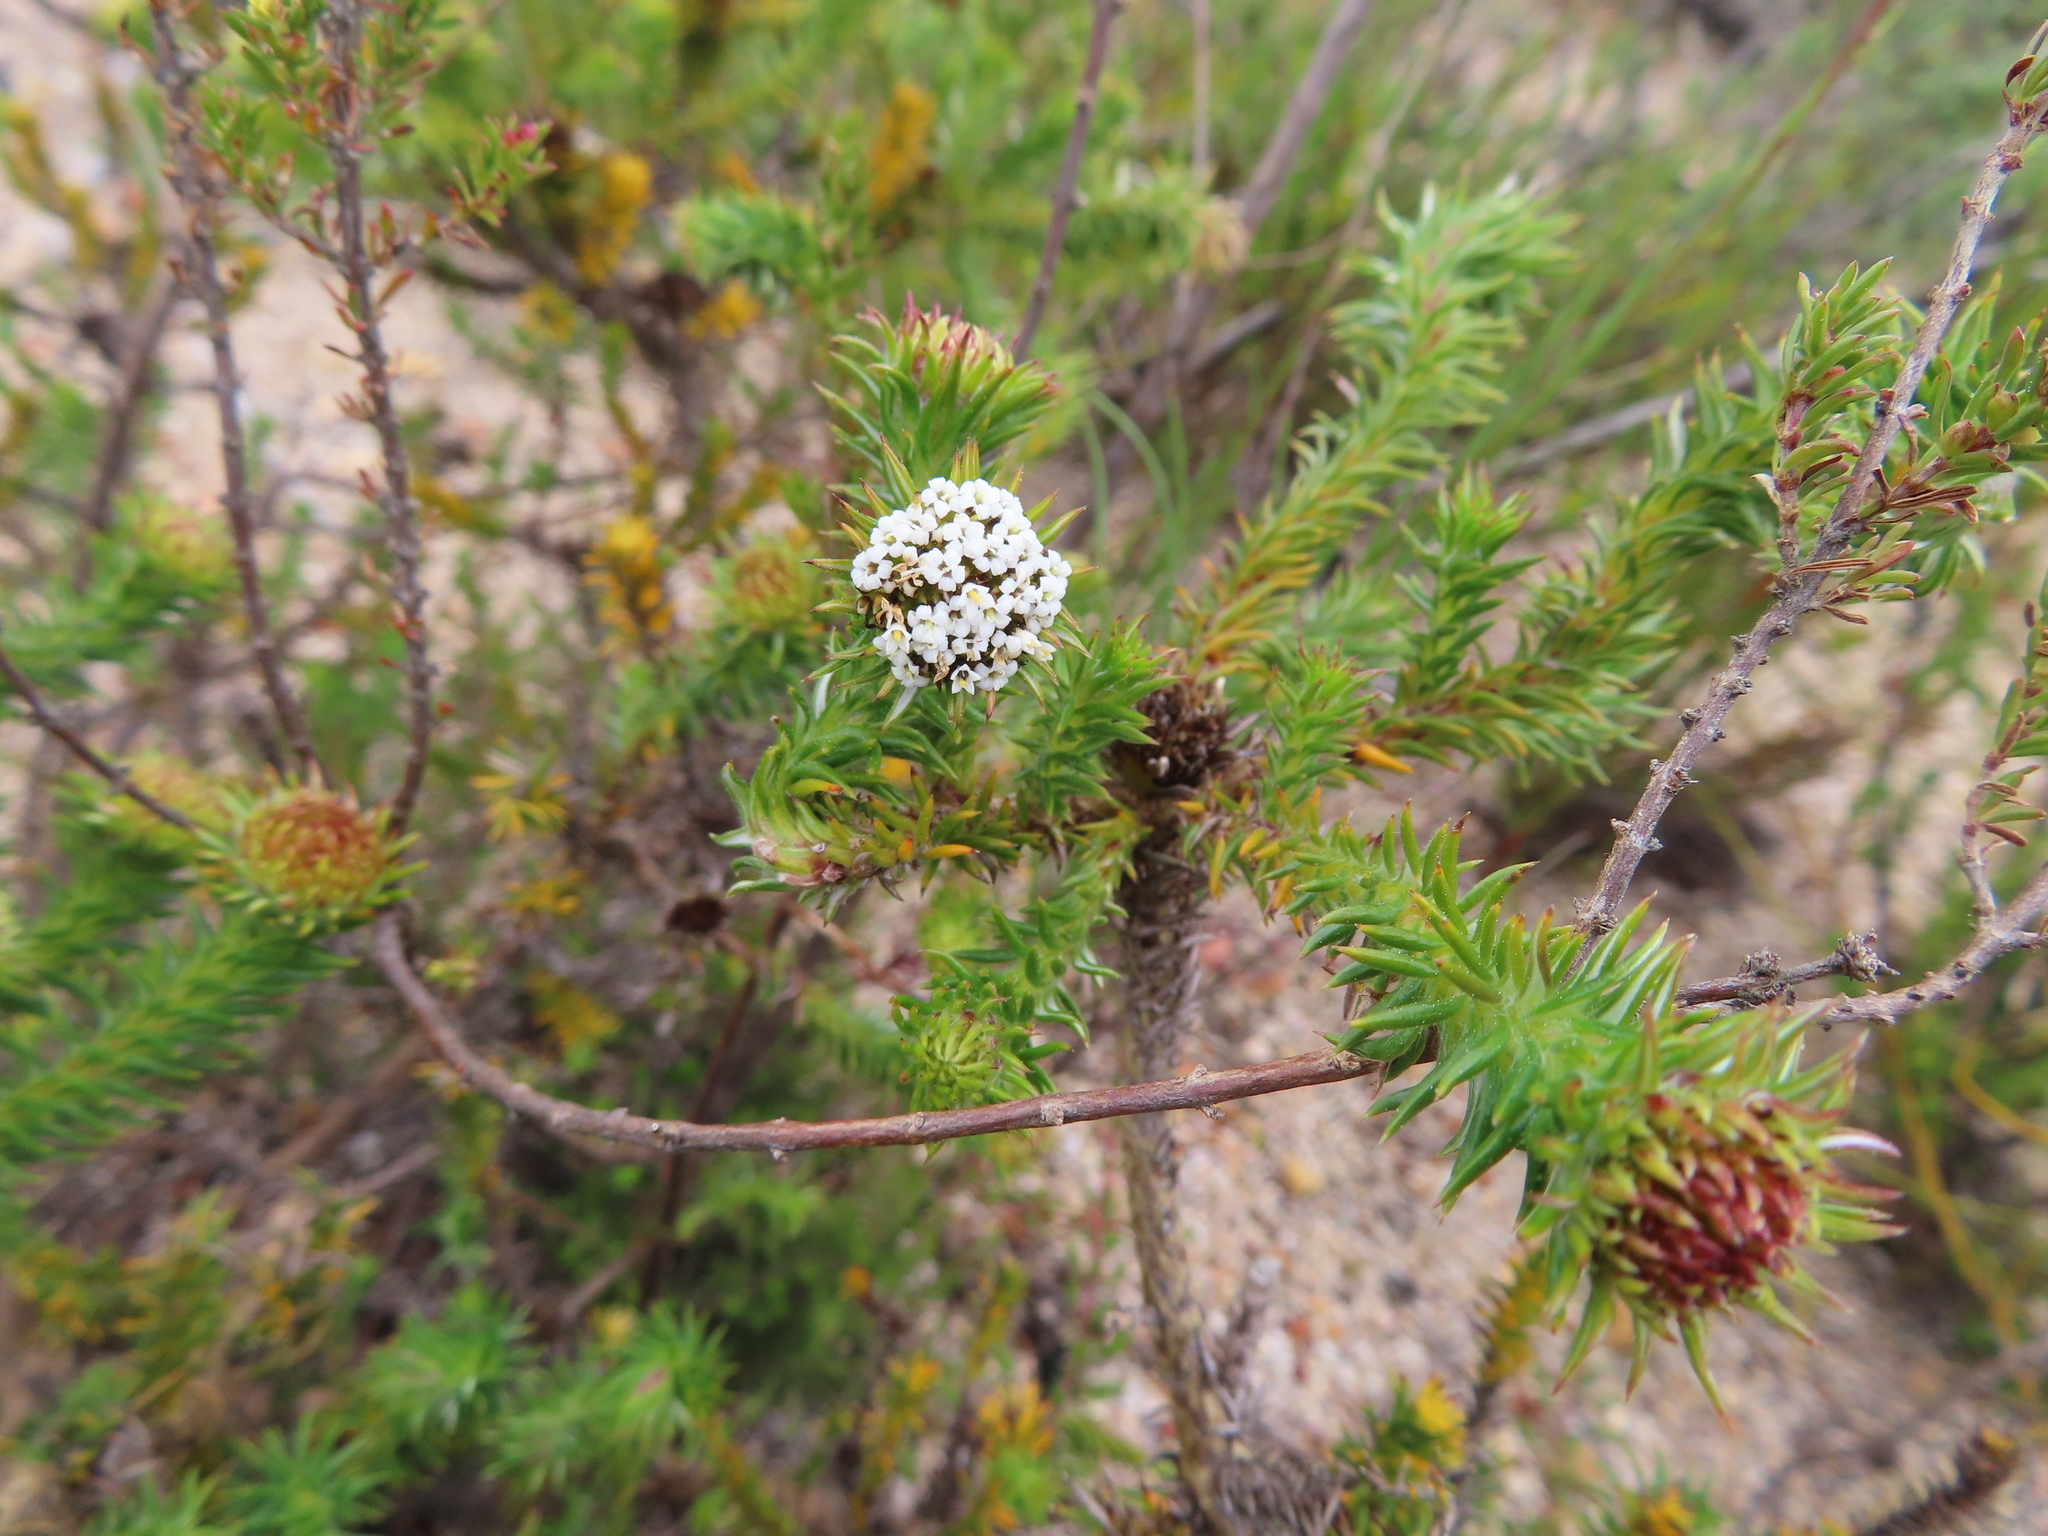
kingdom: Plantae
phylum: Tracheophyta
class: Magnoliopsida
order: Asterales
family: Asteraceae
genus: Stoebe
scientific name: Stoebe aethiopica
